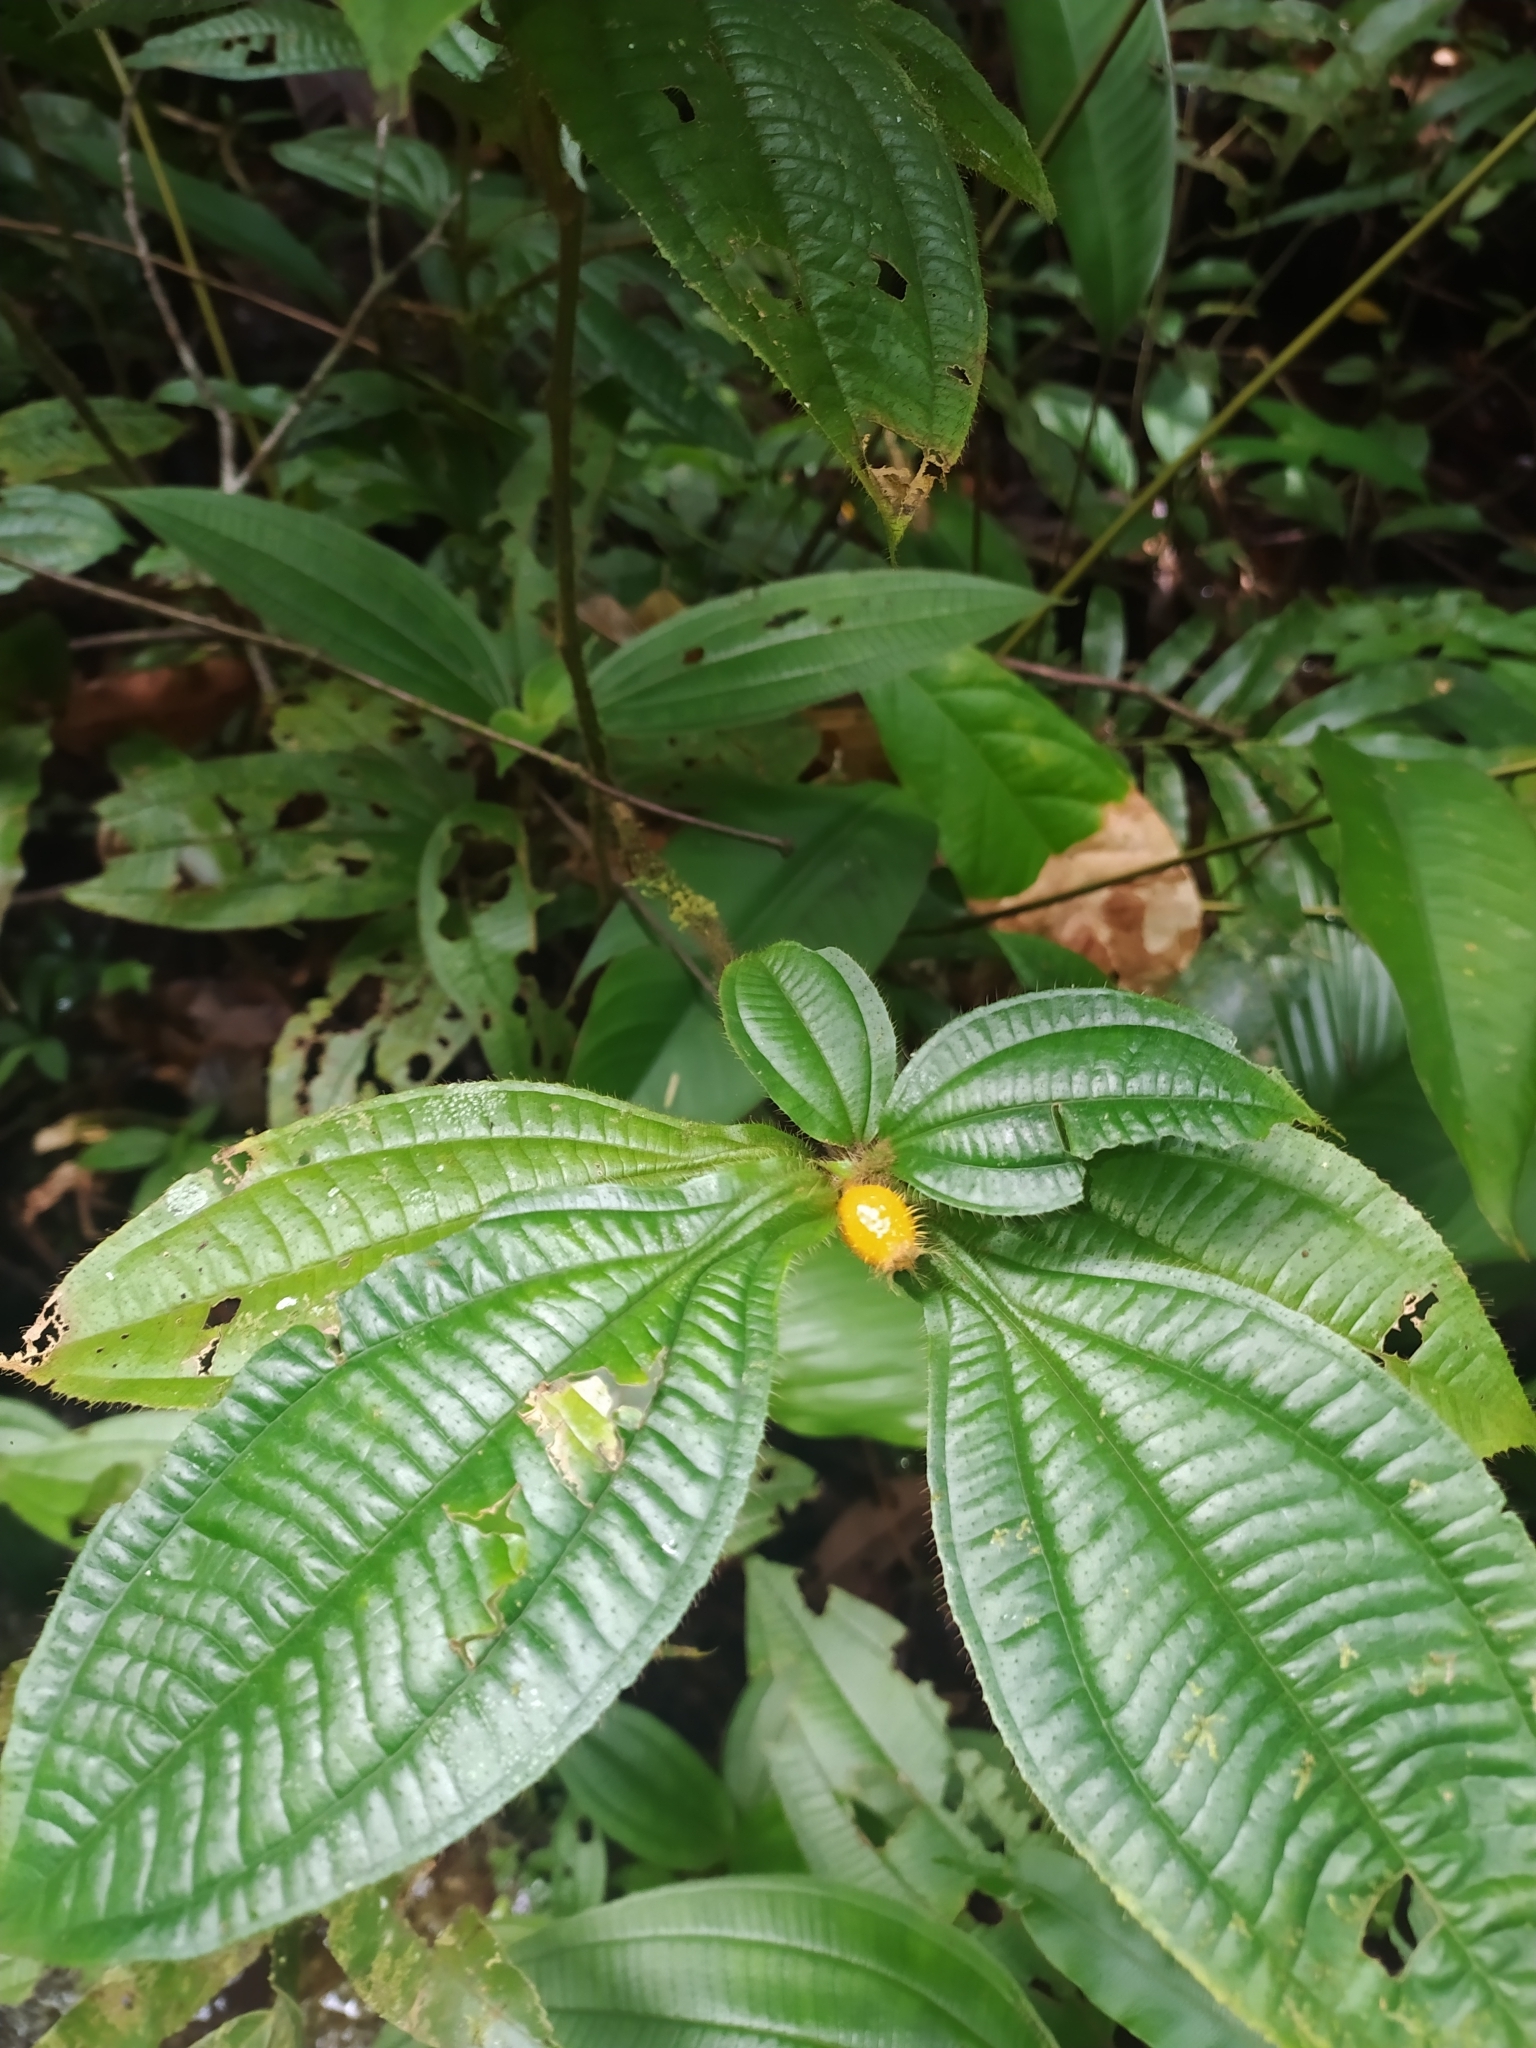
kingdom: Plantae
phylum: Tracheophyta
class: Magnoliopsida
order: Myrtales
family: Melastomataceae
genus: Miconia
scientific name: Miconia alternidomatia
